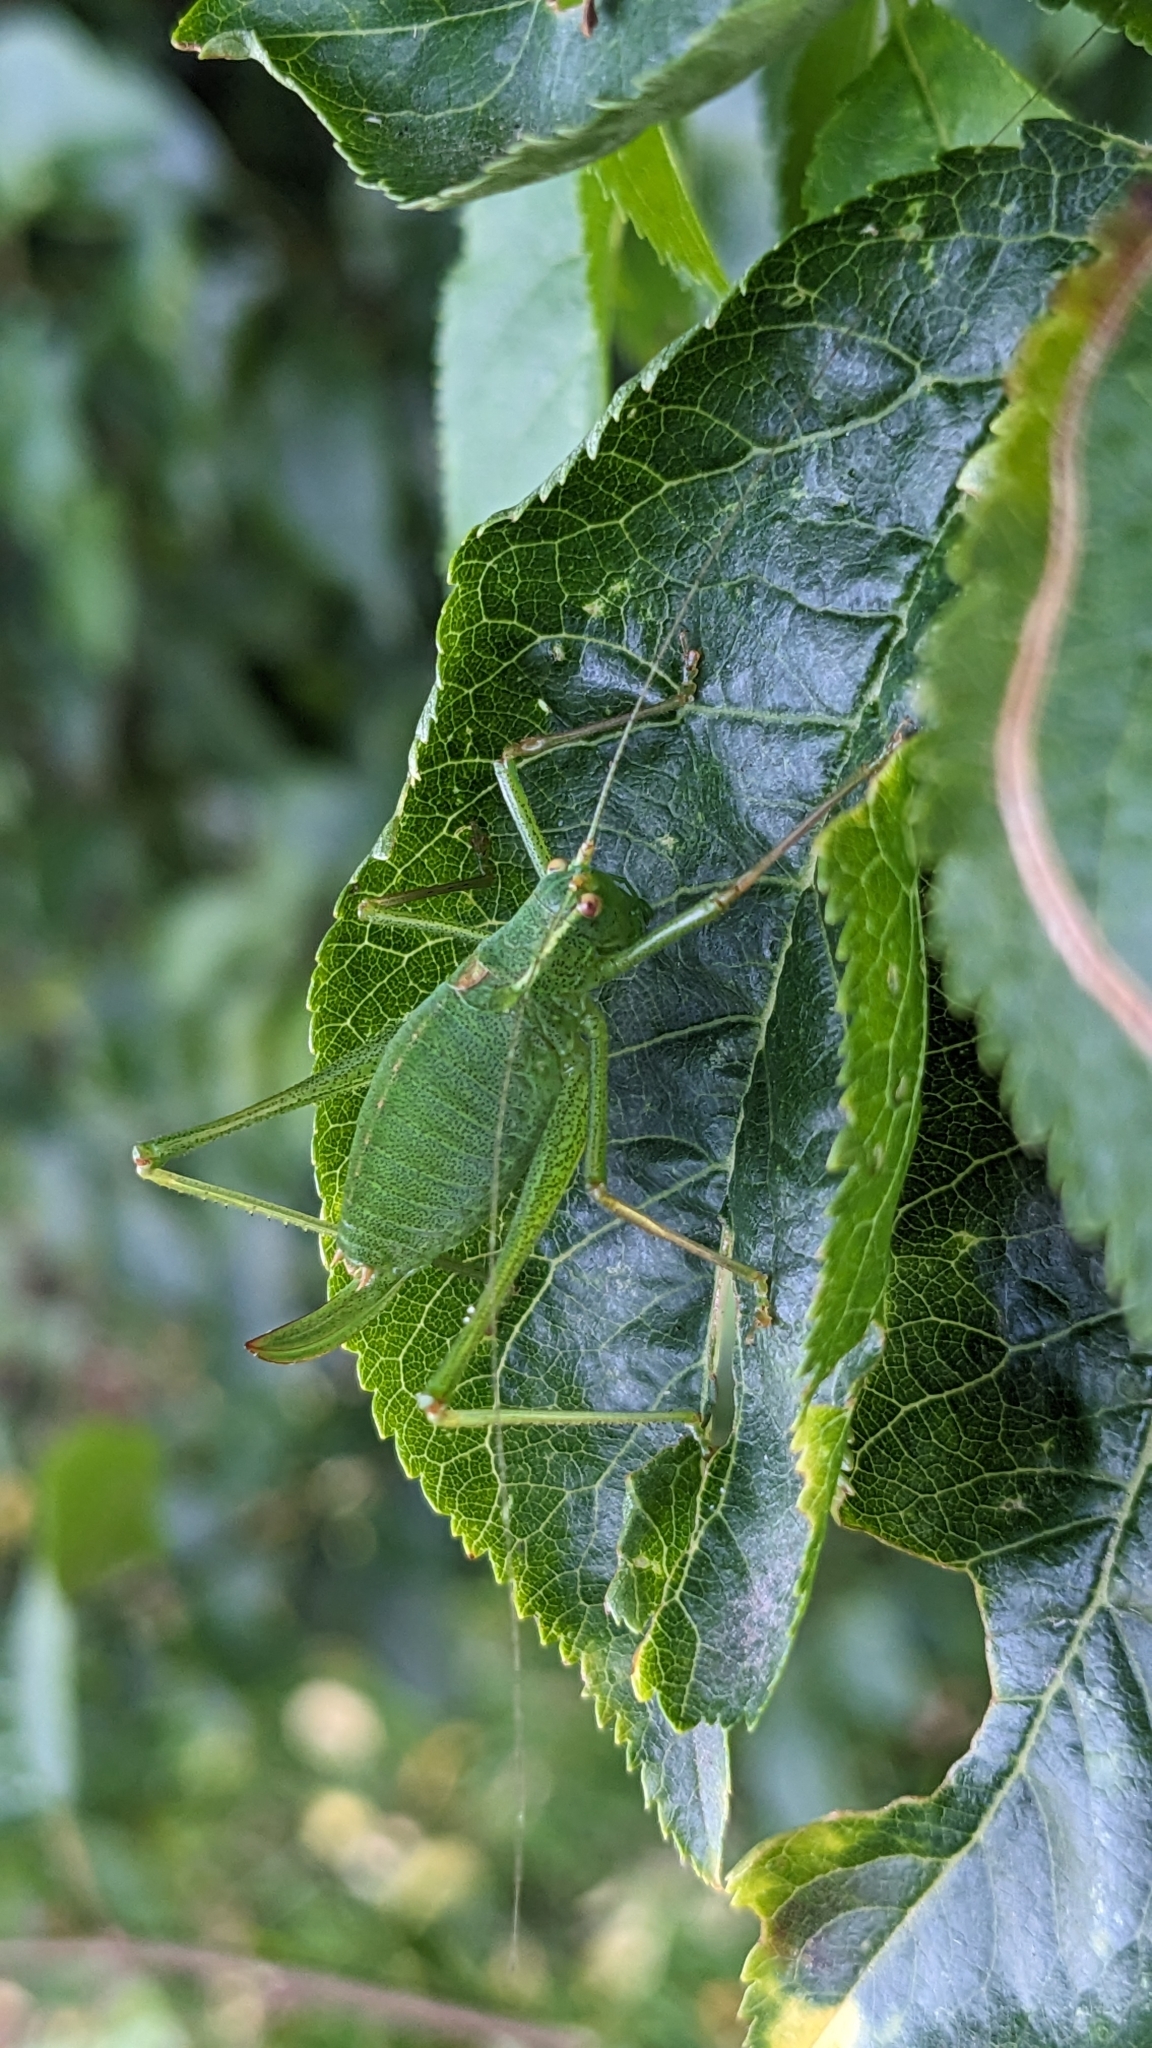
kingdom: Animalia
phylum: Arthropoda
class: Insecta
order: Orthoptera
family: Tettigoniidae
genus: Leptophyes
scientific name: Leptophyes punctatissima
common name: Speckled bush-cricket
